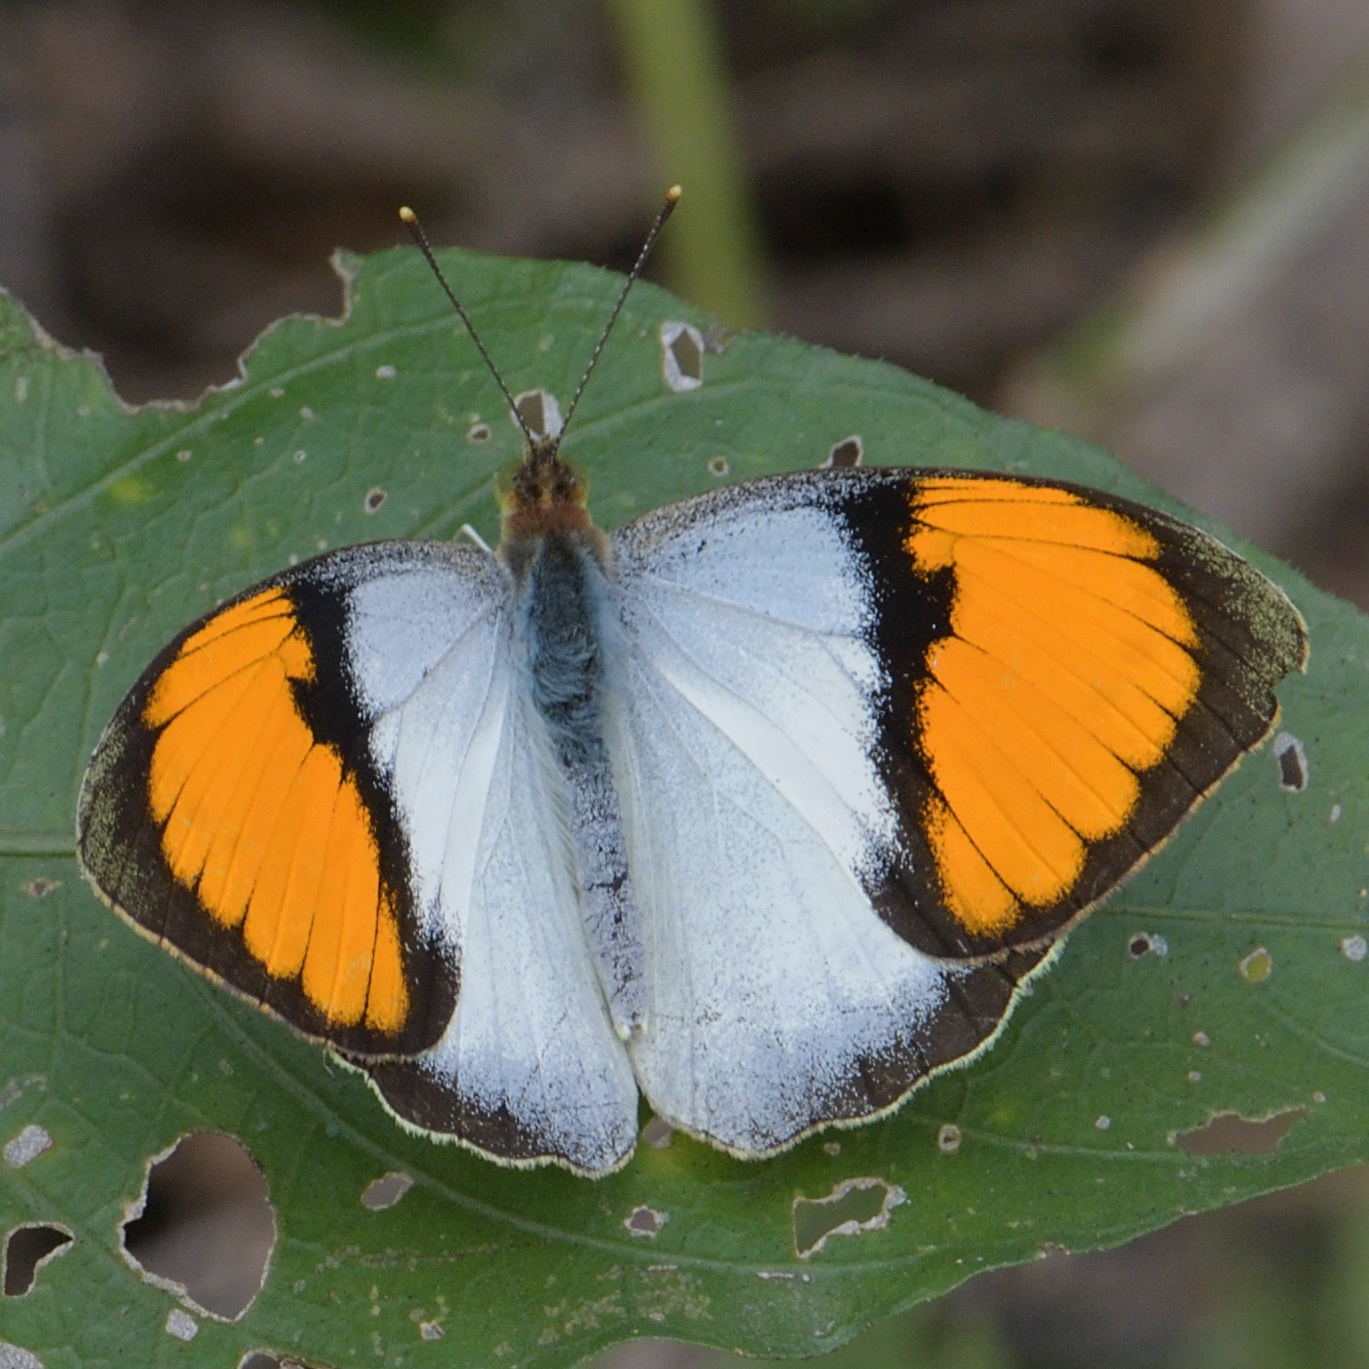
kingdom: Animalia
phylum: Arthropoda
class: Insecta
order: Lepidoptera
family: Pieridae
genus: Ixias
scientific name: Ixias marianne
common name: White orange tip
